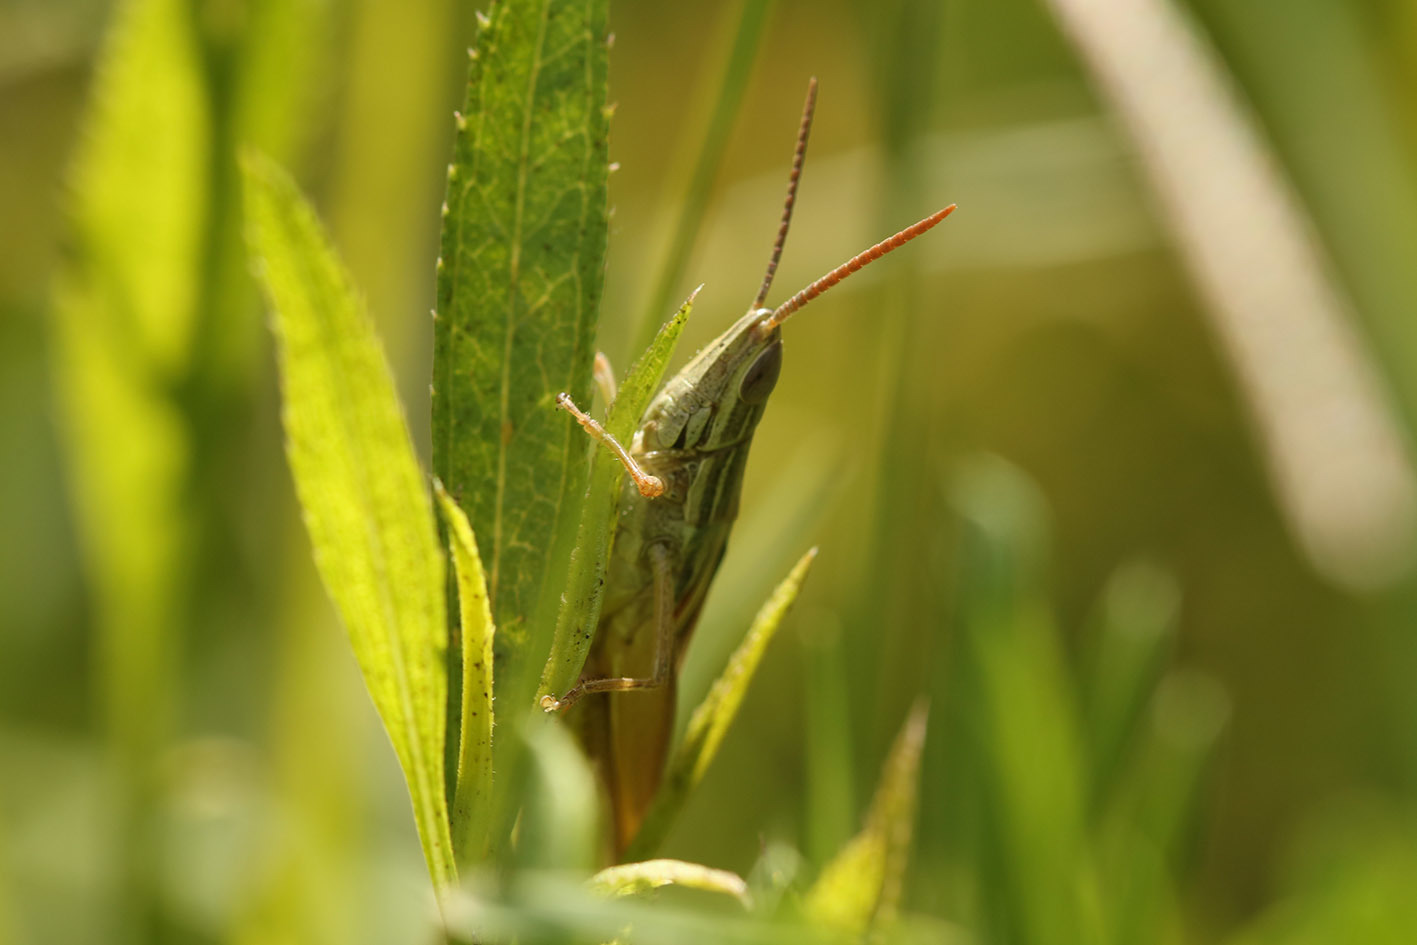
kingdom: Animalia
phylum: Arthropoda
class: Insecta
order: Orthoptera
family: Acrididae
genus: Sinipta
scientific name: Sinipta dalmani
